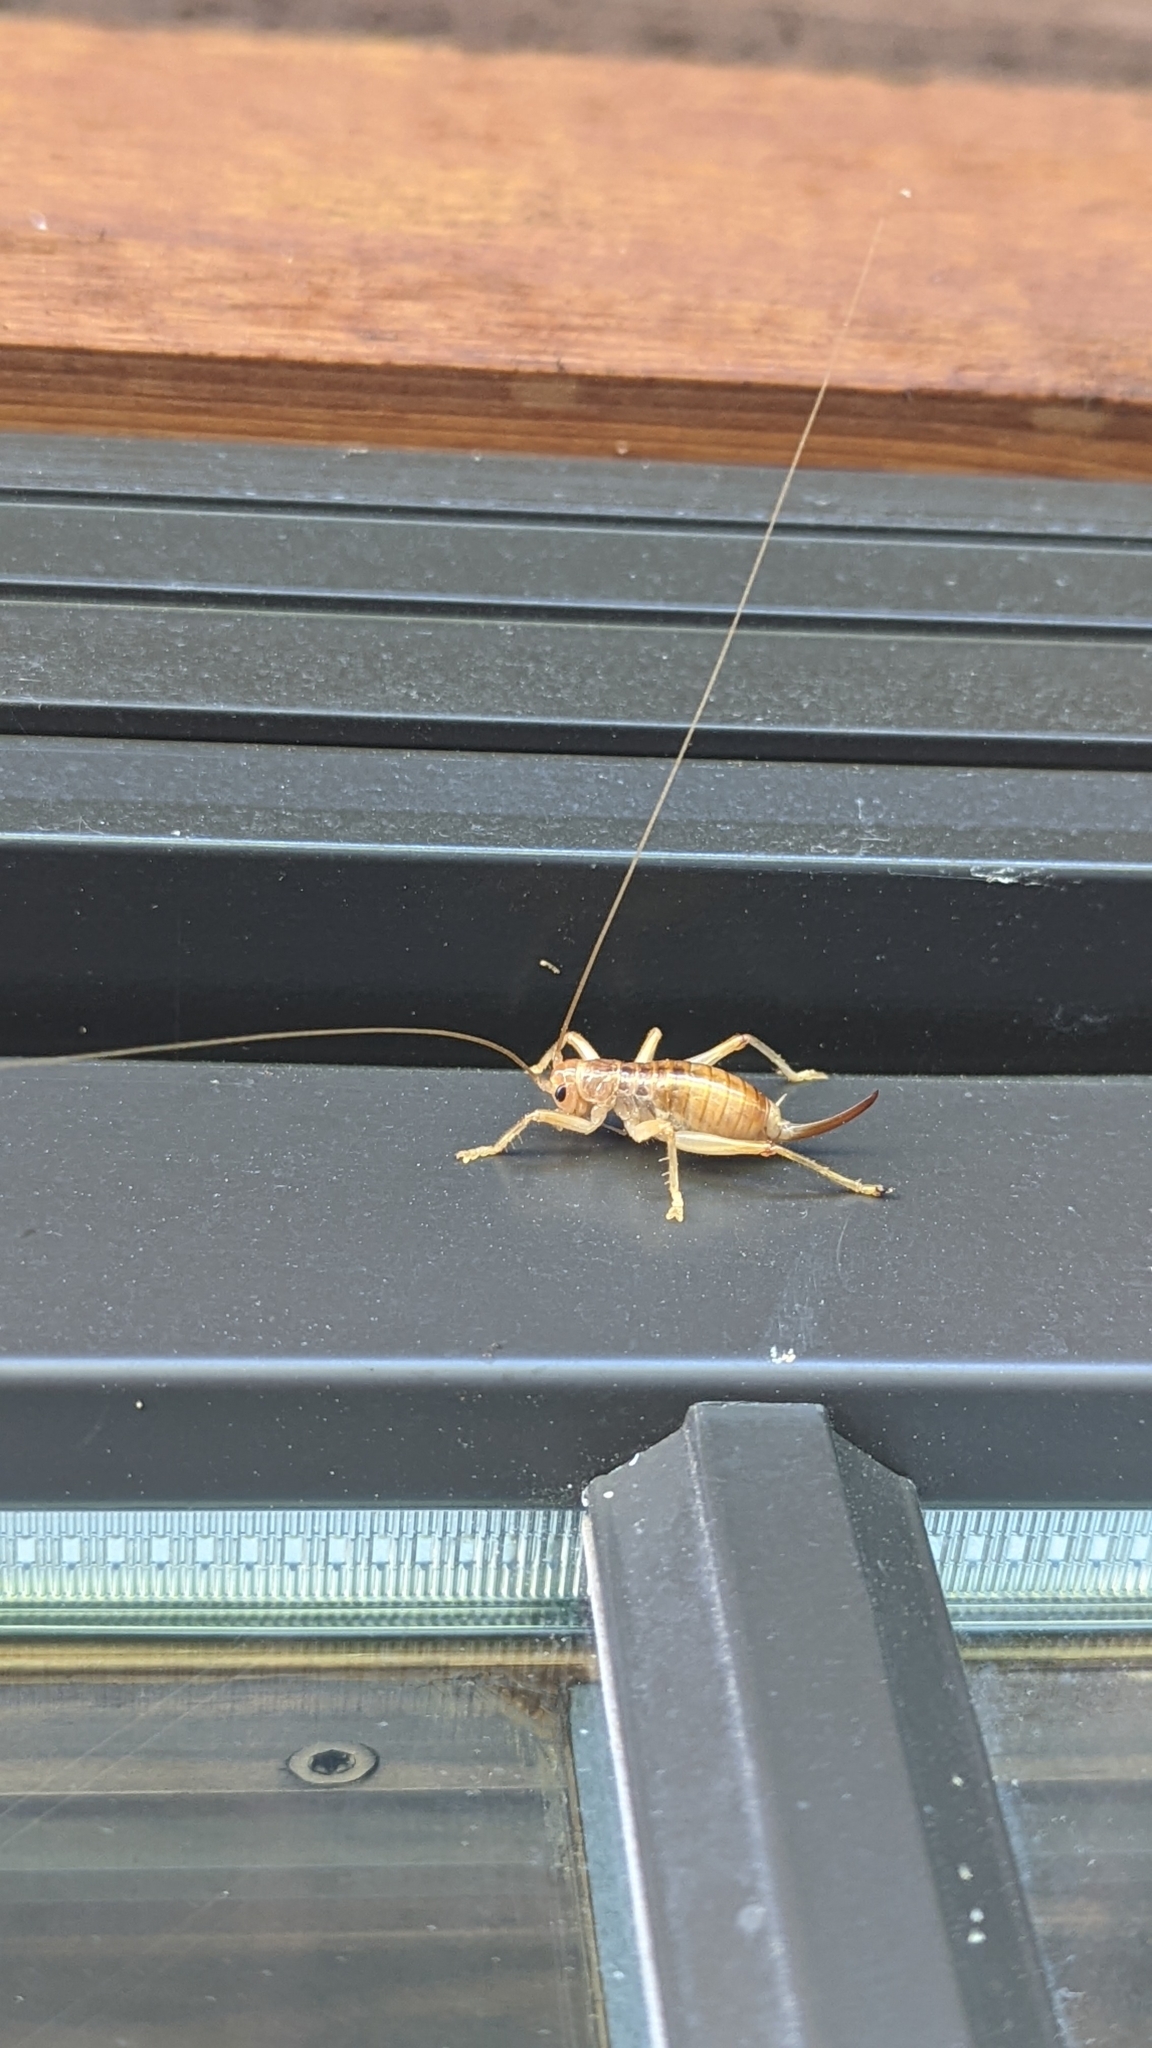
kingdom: Animalia
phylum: Arthropoda
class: Insecta
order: Orthoptera
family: Gryllacrididae
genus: Camptonotus
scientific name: Camptonotus carolinensis
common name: Carolina leaf-roller
